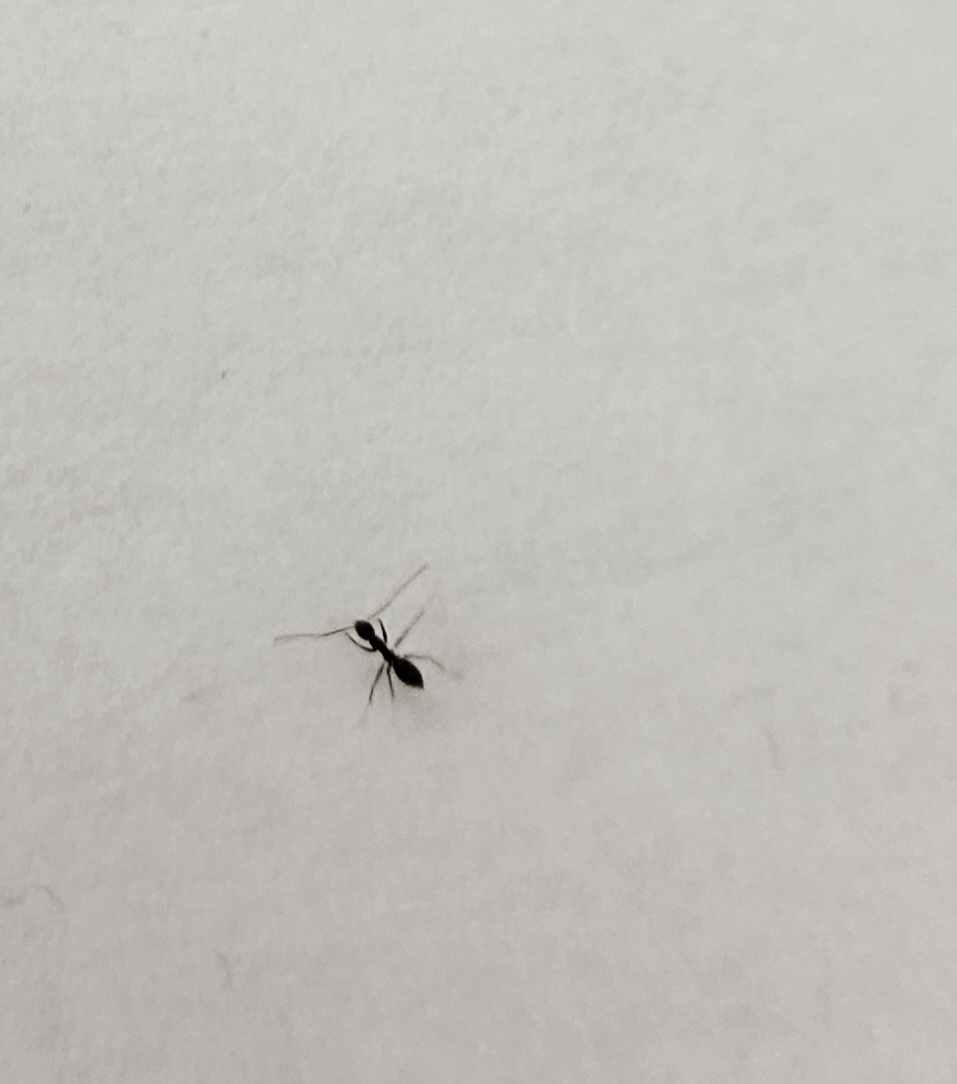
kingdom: Animalia
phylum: Arthropoda
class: Insecta
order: Hymenoptera
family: Formicidae
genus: Paratrechina
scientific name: Paratrechina longicornis
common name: Longhorned crazy ant
